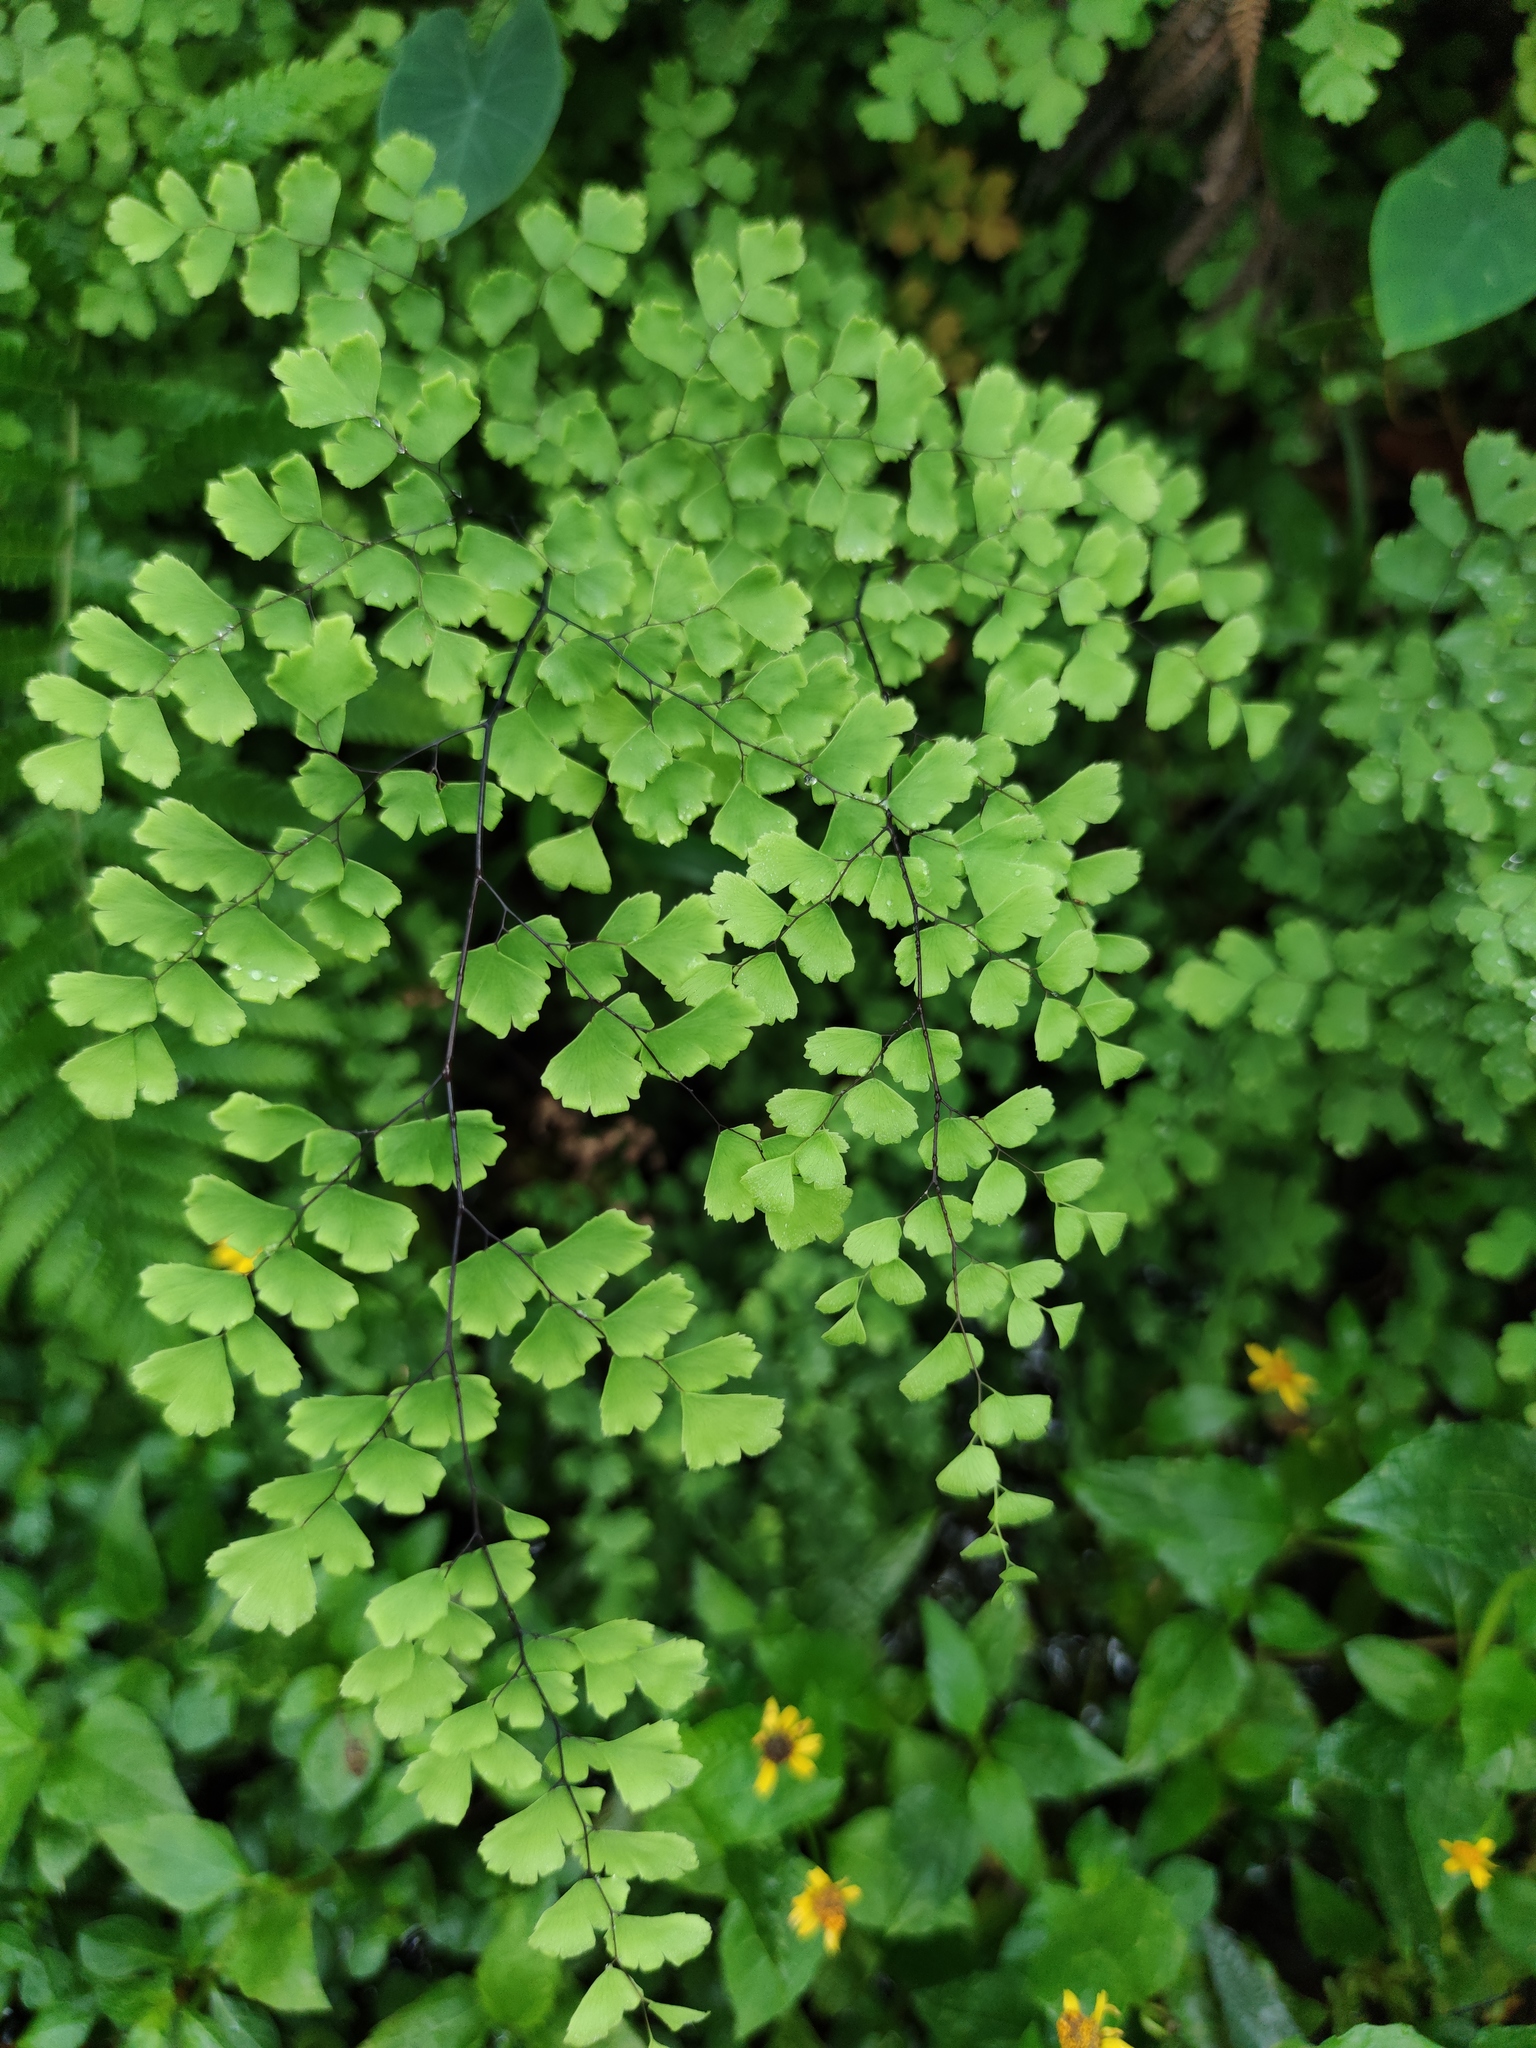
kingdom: Plantae
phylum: Tracheophyta
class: Polypodiopsida
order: Polypodiales
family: Pteridaceae
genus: Adiantum
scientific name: Adiantum tenerum
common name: Fan maidenhair
